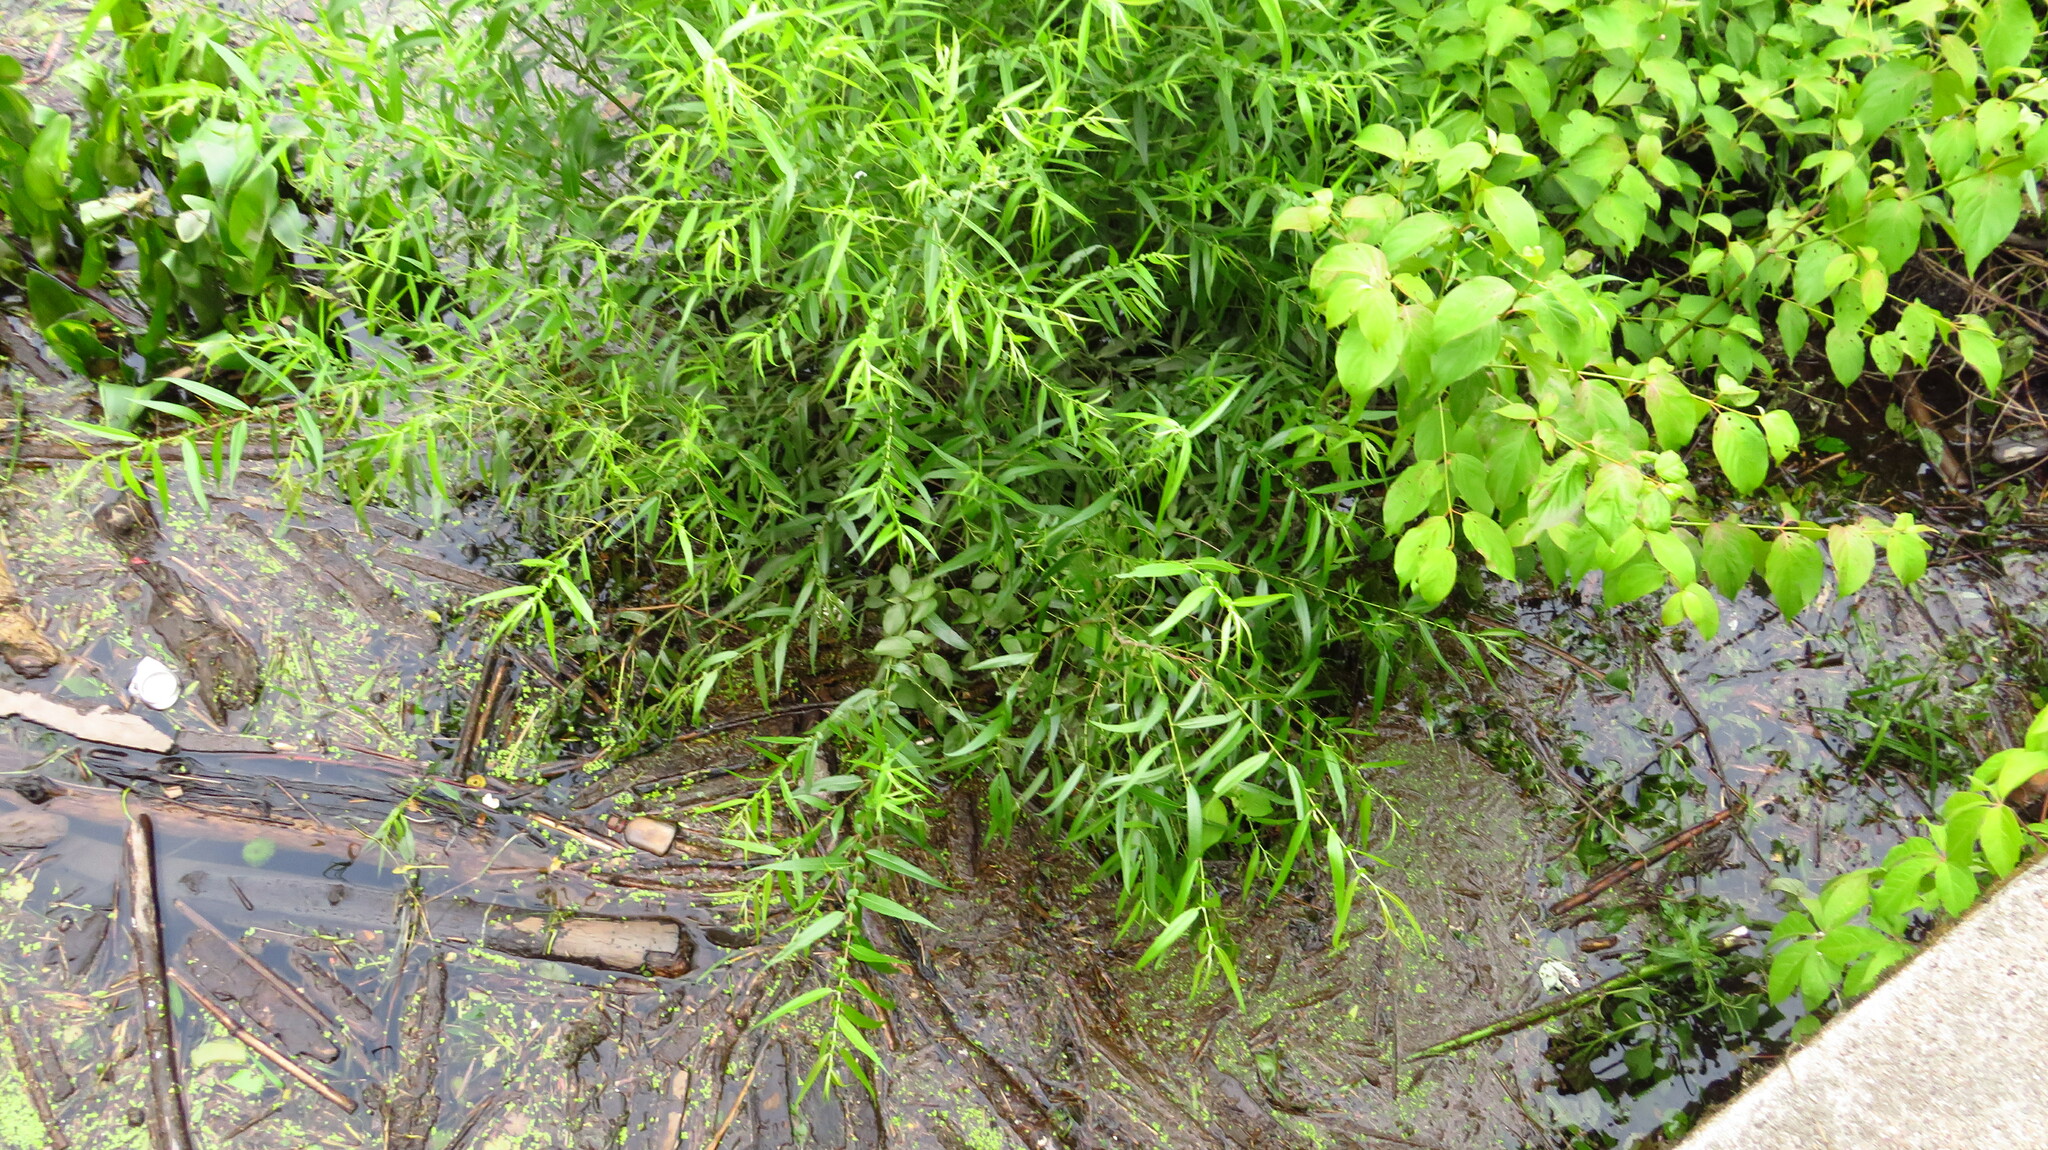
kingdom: Plantae
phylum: Tracheophyta
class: Magnoliopsida
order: Malpighiales
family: Salicaceae
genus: Salix
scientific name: Salix nigra
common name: Black willow
